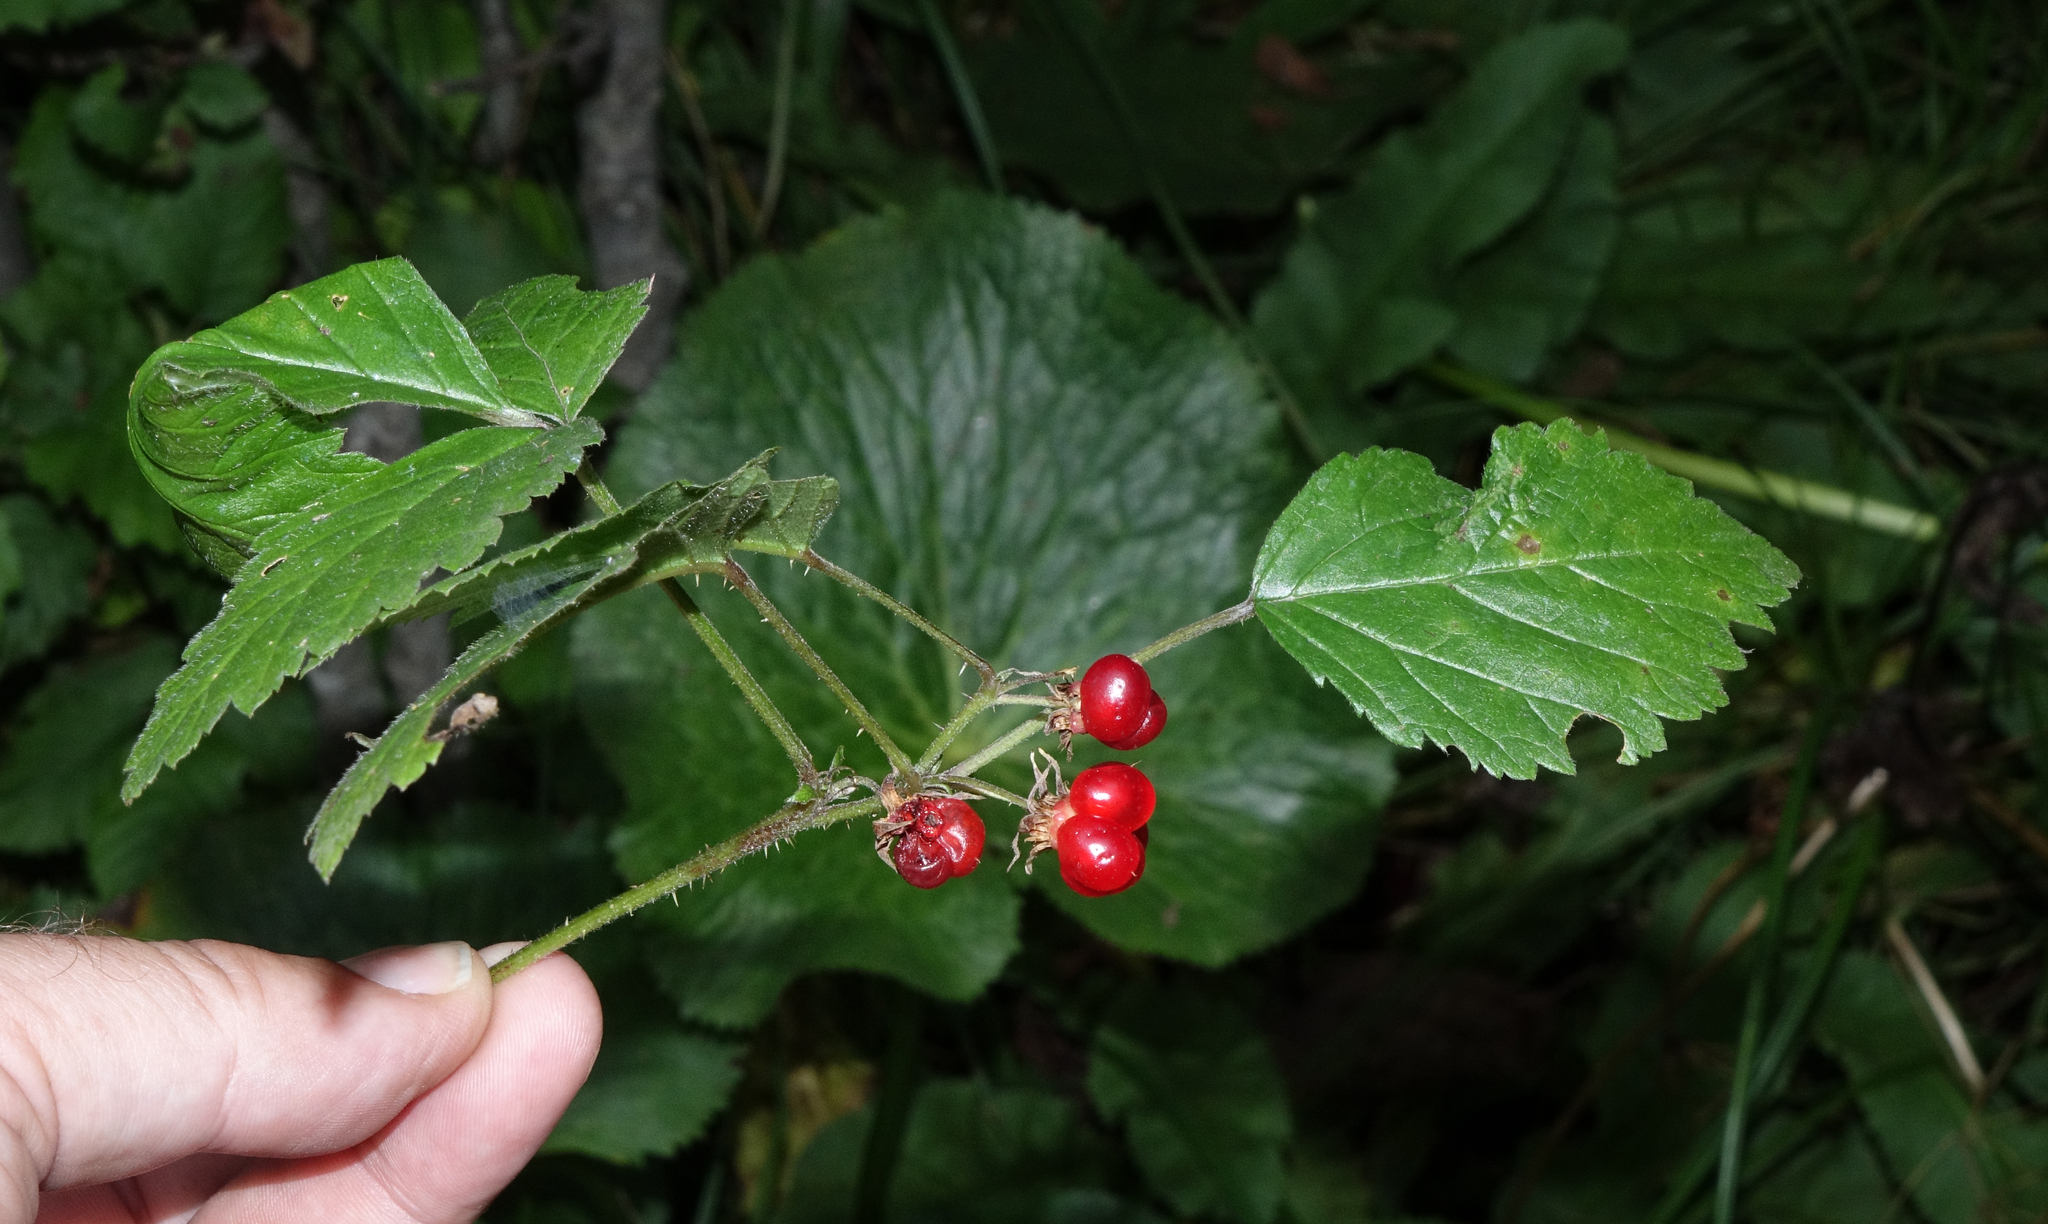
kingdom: Plantae
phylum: Tracheophyta
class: Magnoliopsida
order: Rosales
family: Rosaceae
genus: Rubus
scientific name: Rubus saxatilis
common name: Stone bramble
